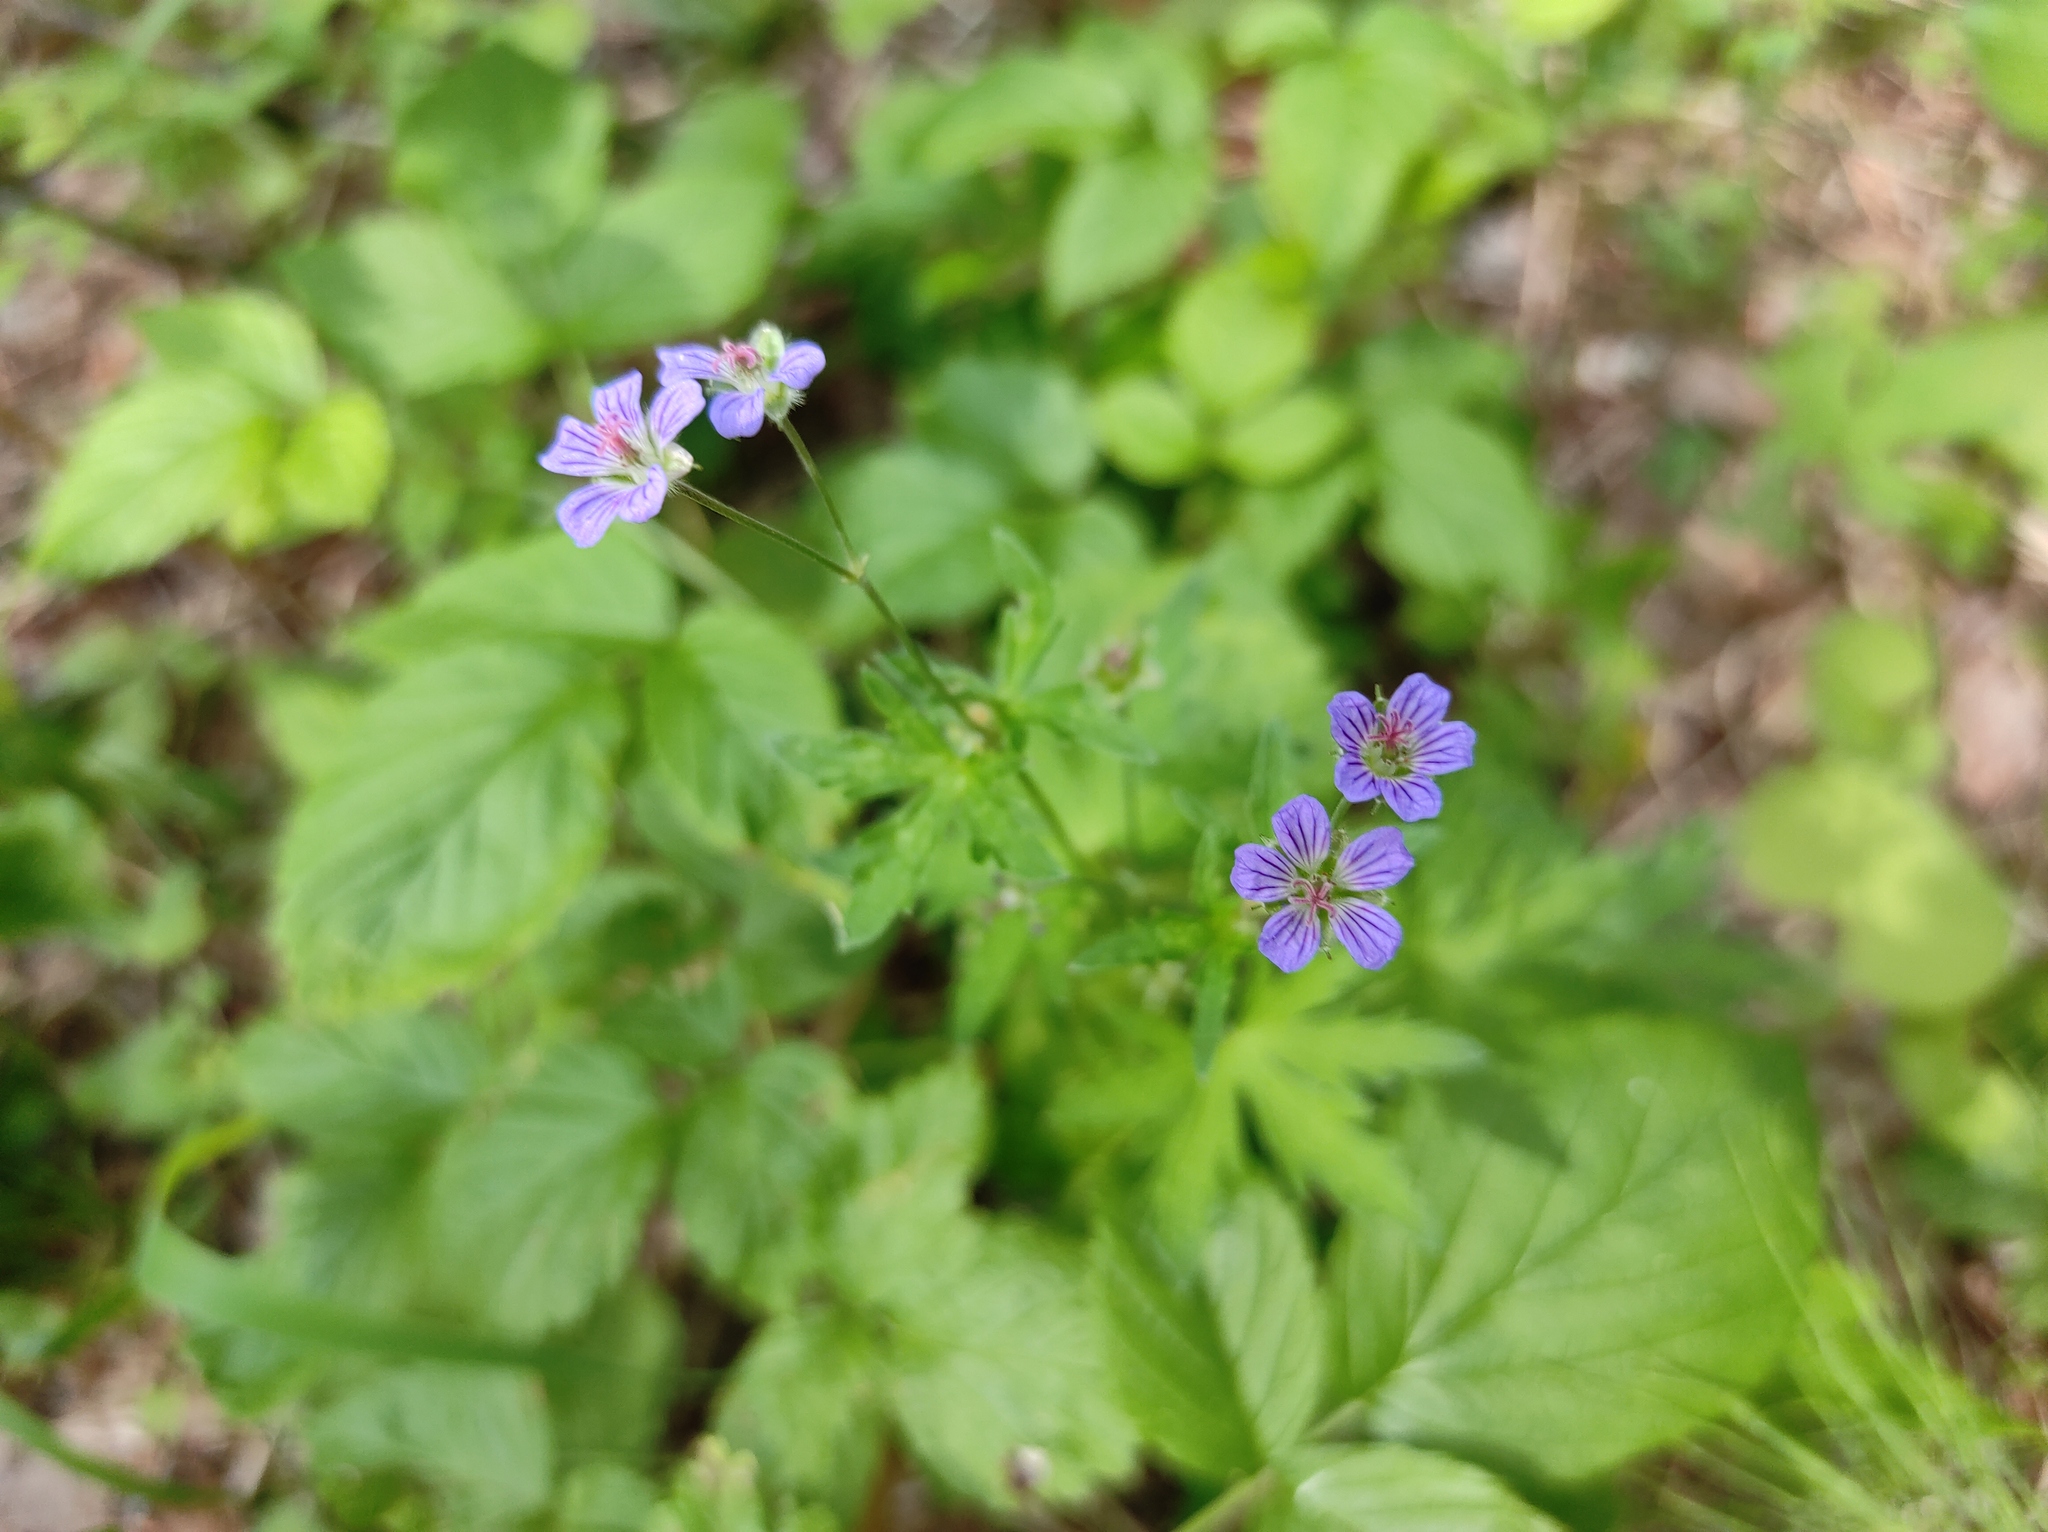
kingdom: Plantae
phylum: Tracheophyta
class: Magnoliopsida
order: Geraniales
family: Geraniaceae
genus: Geranium
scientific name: Geranium pseudosibiricum
